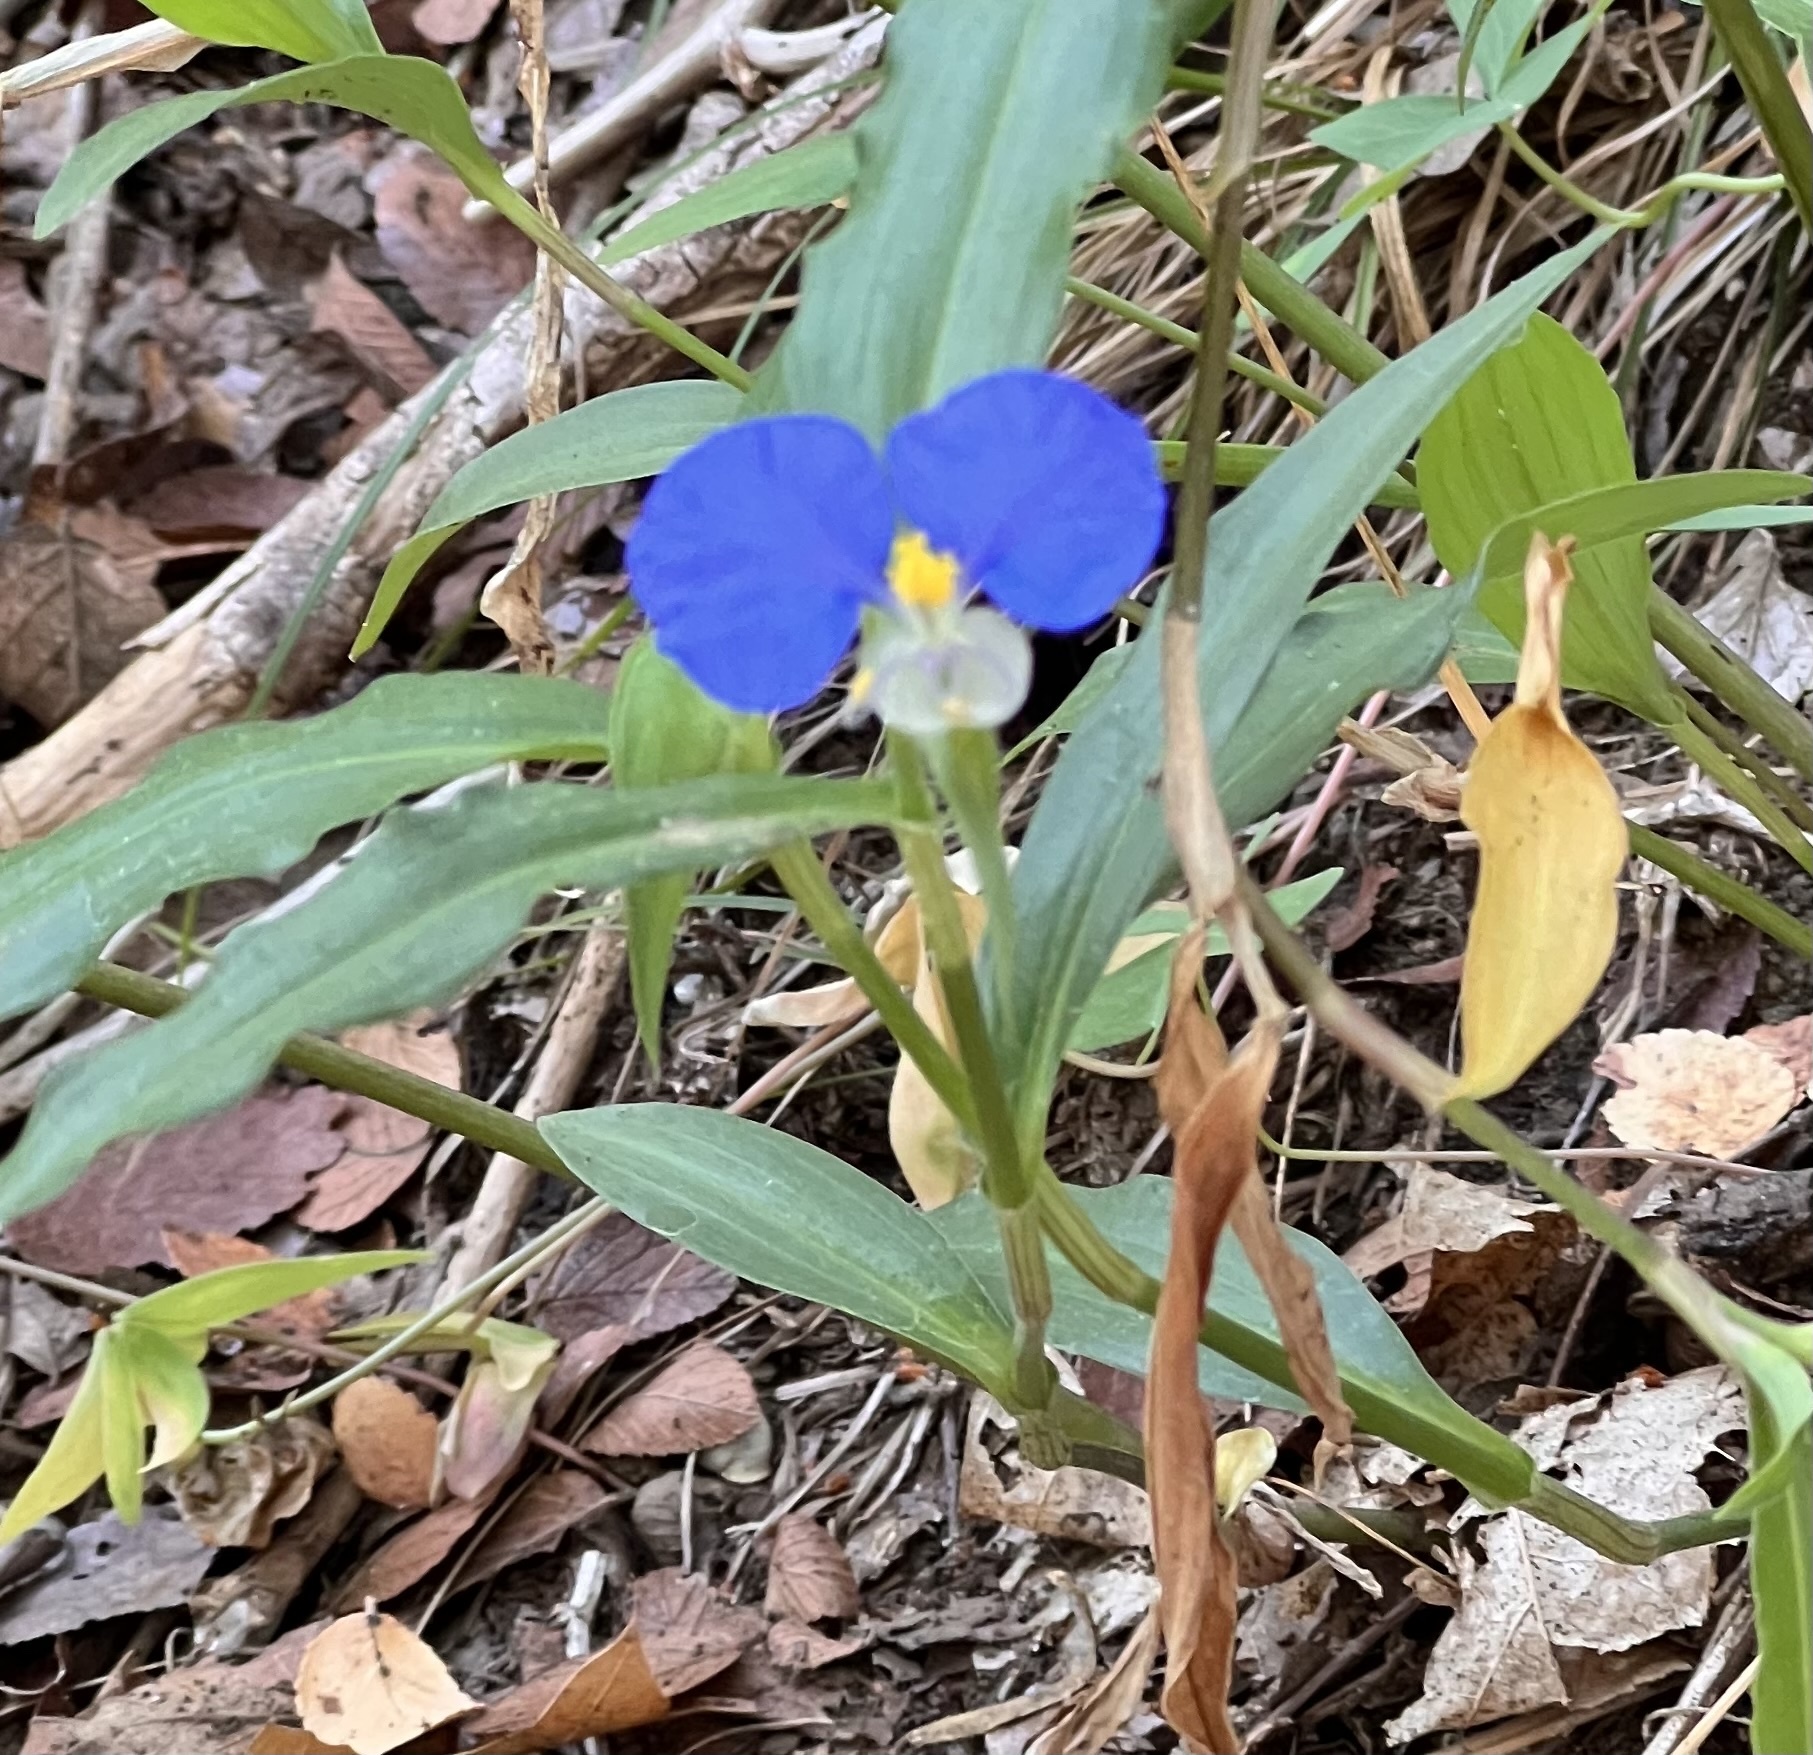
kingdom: Plantae
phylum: Tracheophyta
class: Liliopsida
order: Commelinales
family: Commelinaceae
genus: Commelina
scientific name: Commelina erecta
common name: Blousel blommetjie
